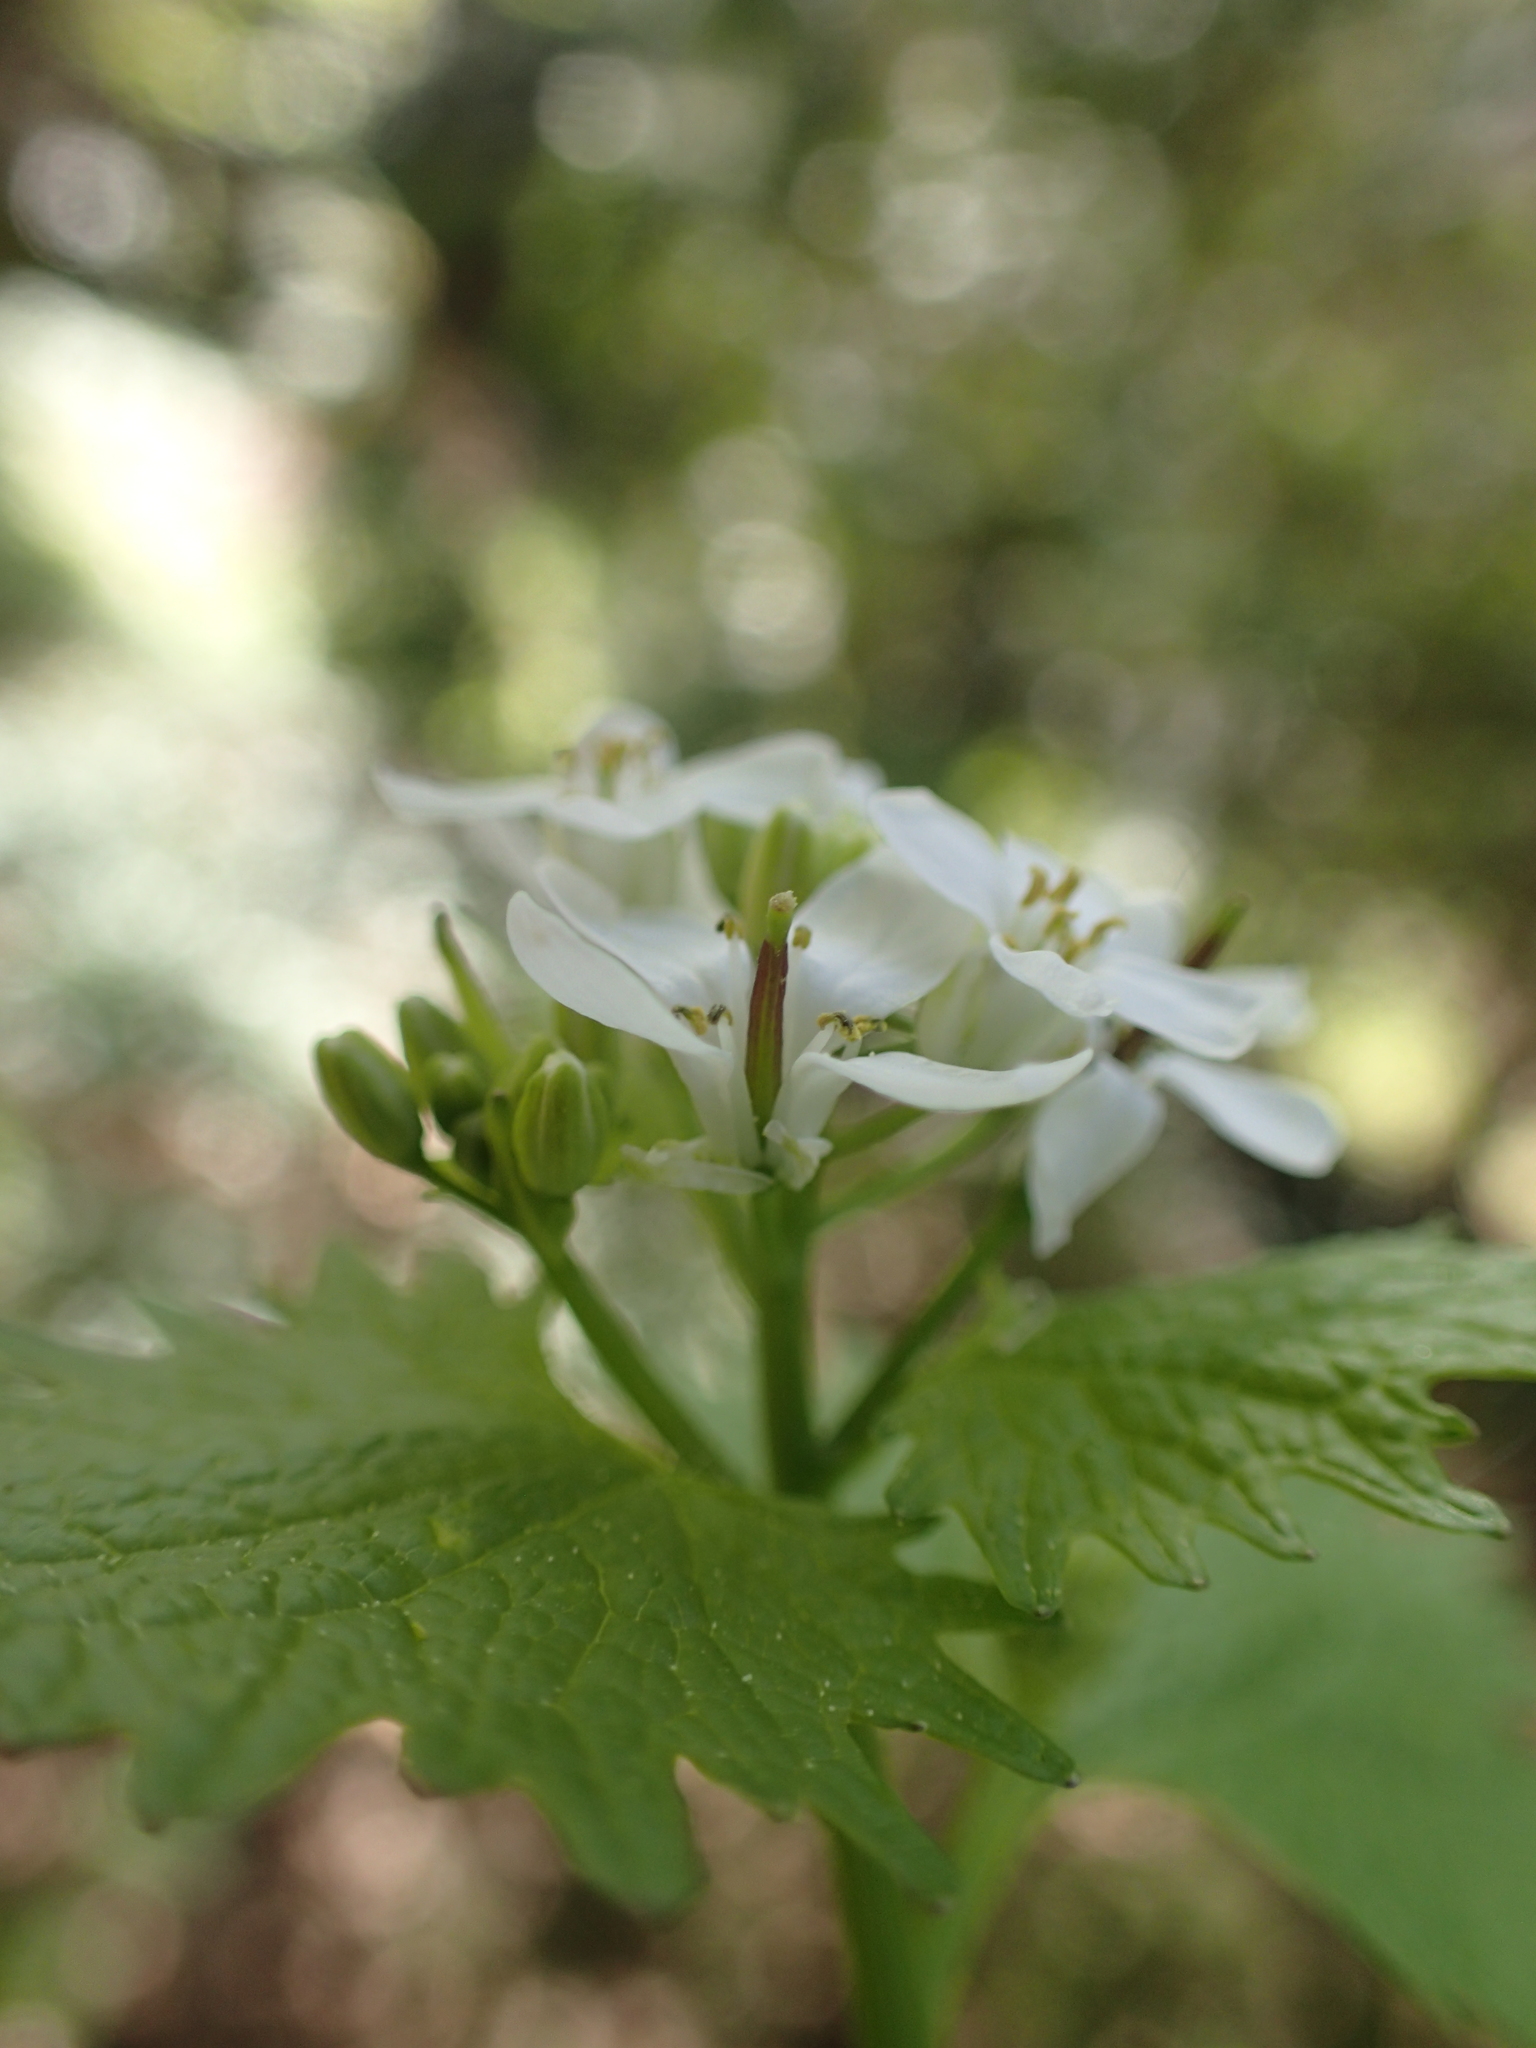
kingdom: Plantae
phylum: Tracheophyta
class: Magnoliopsida
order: Brassicales
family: Brassicaceae
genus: Alliaria
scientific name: Alliaria petiolata
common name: Garlic mustard
